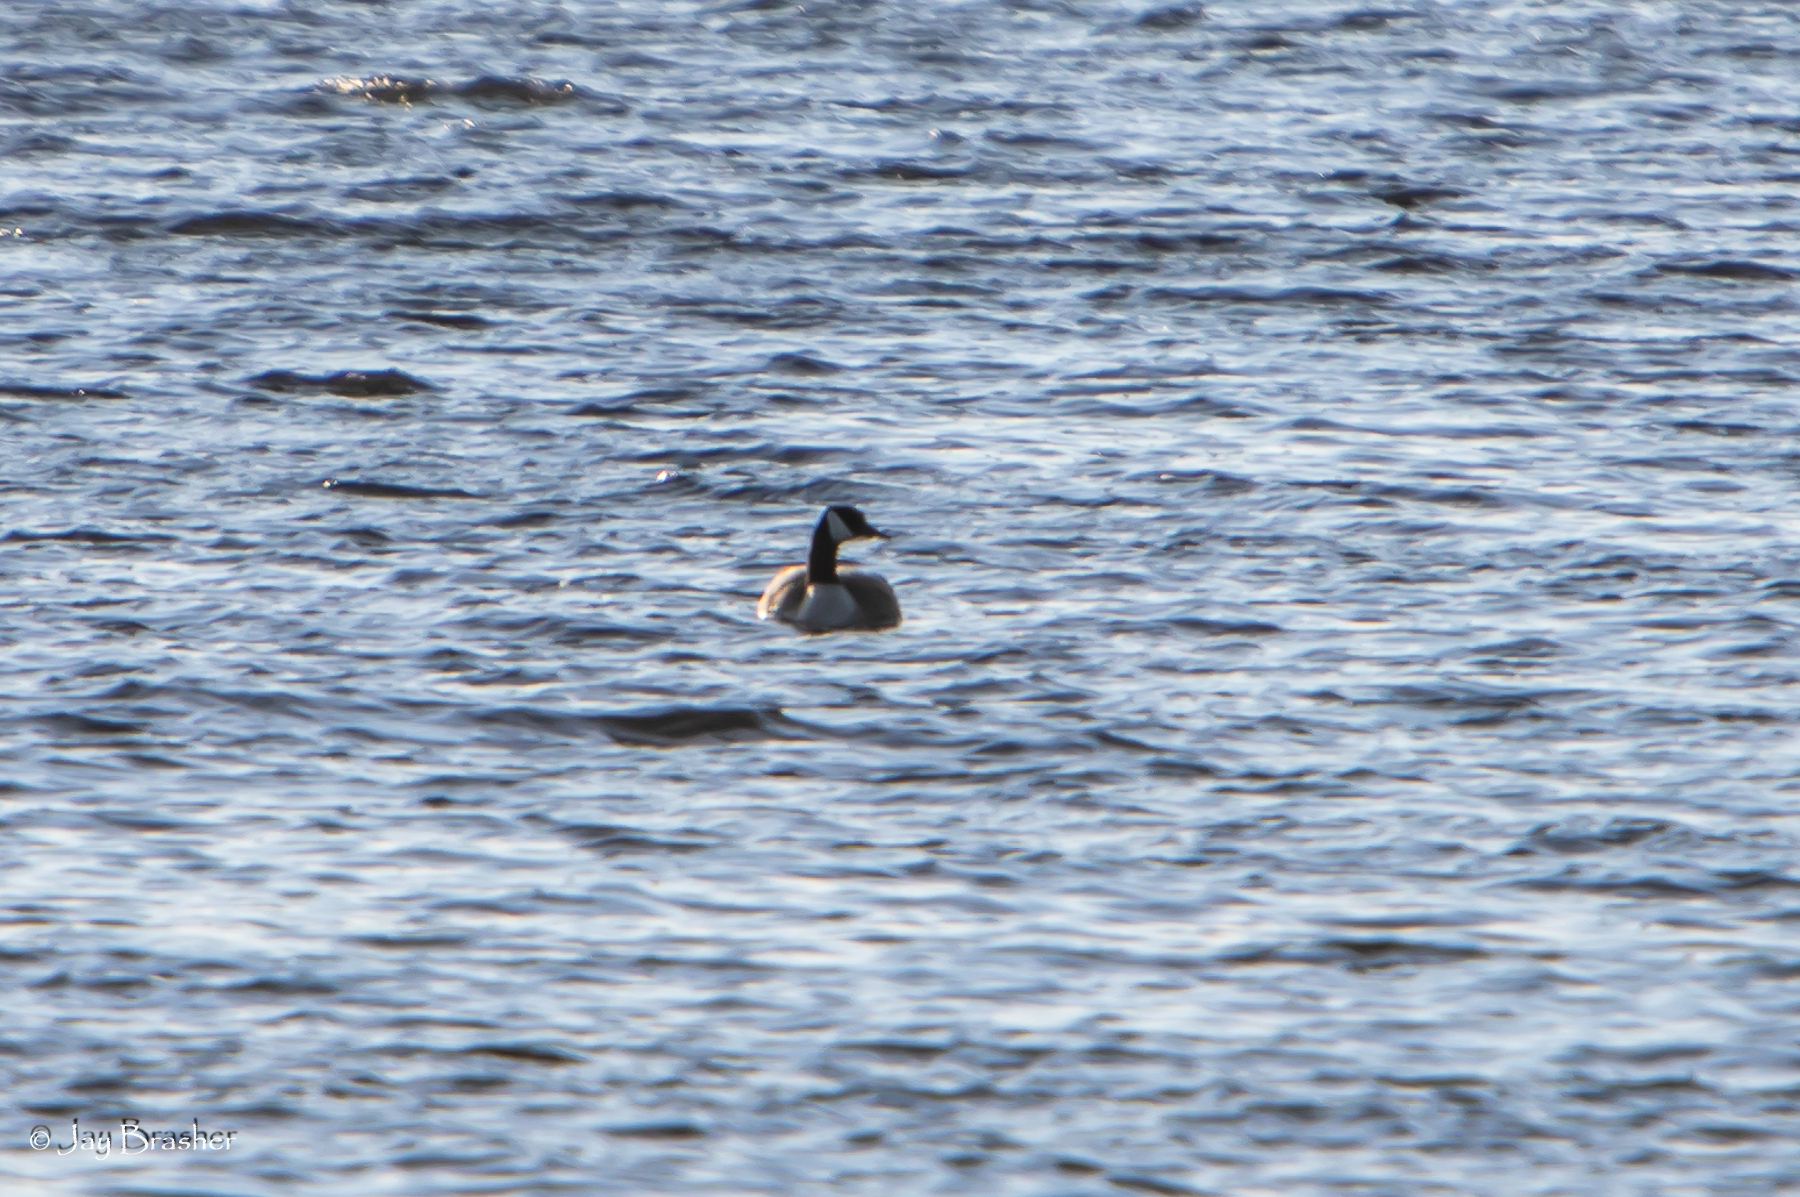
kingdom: Animalia
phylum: Chordata
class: Aves
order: Anseriformes
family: Anatidae
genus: Branta
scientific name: Branta canadensis
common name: Canada goose
